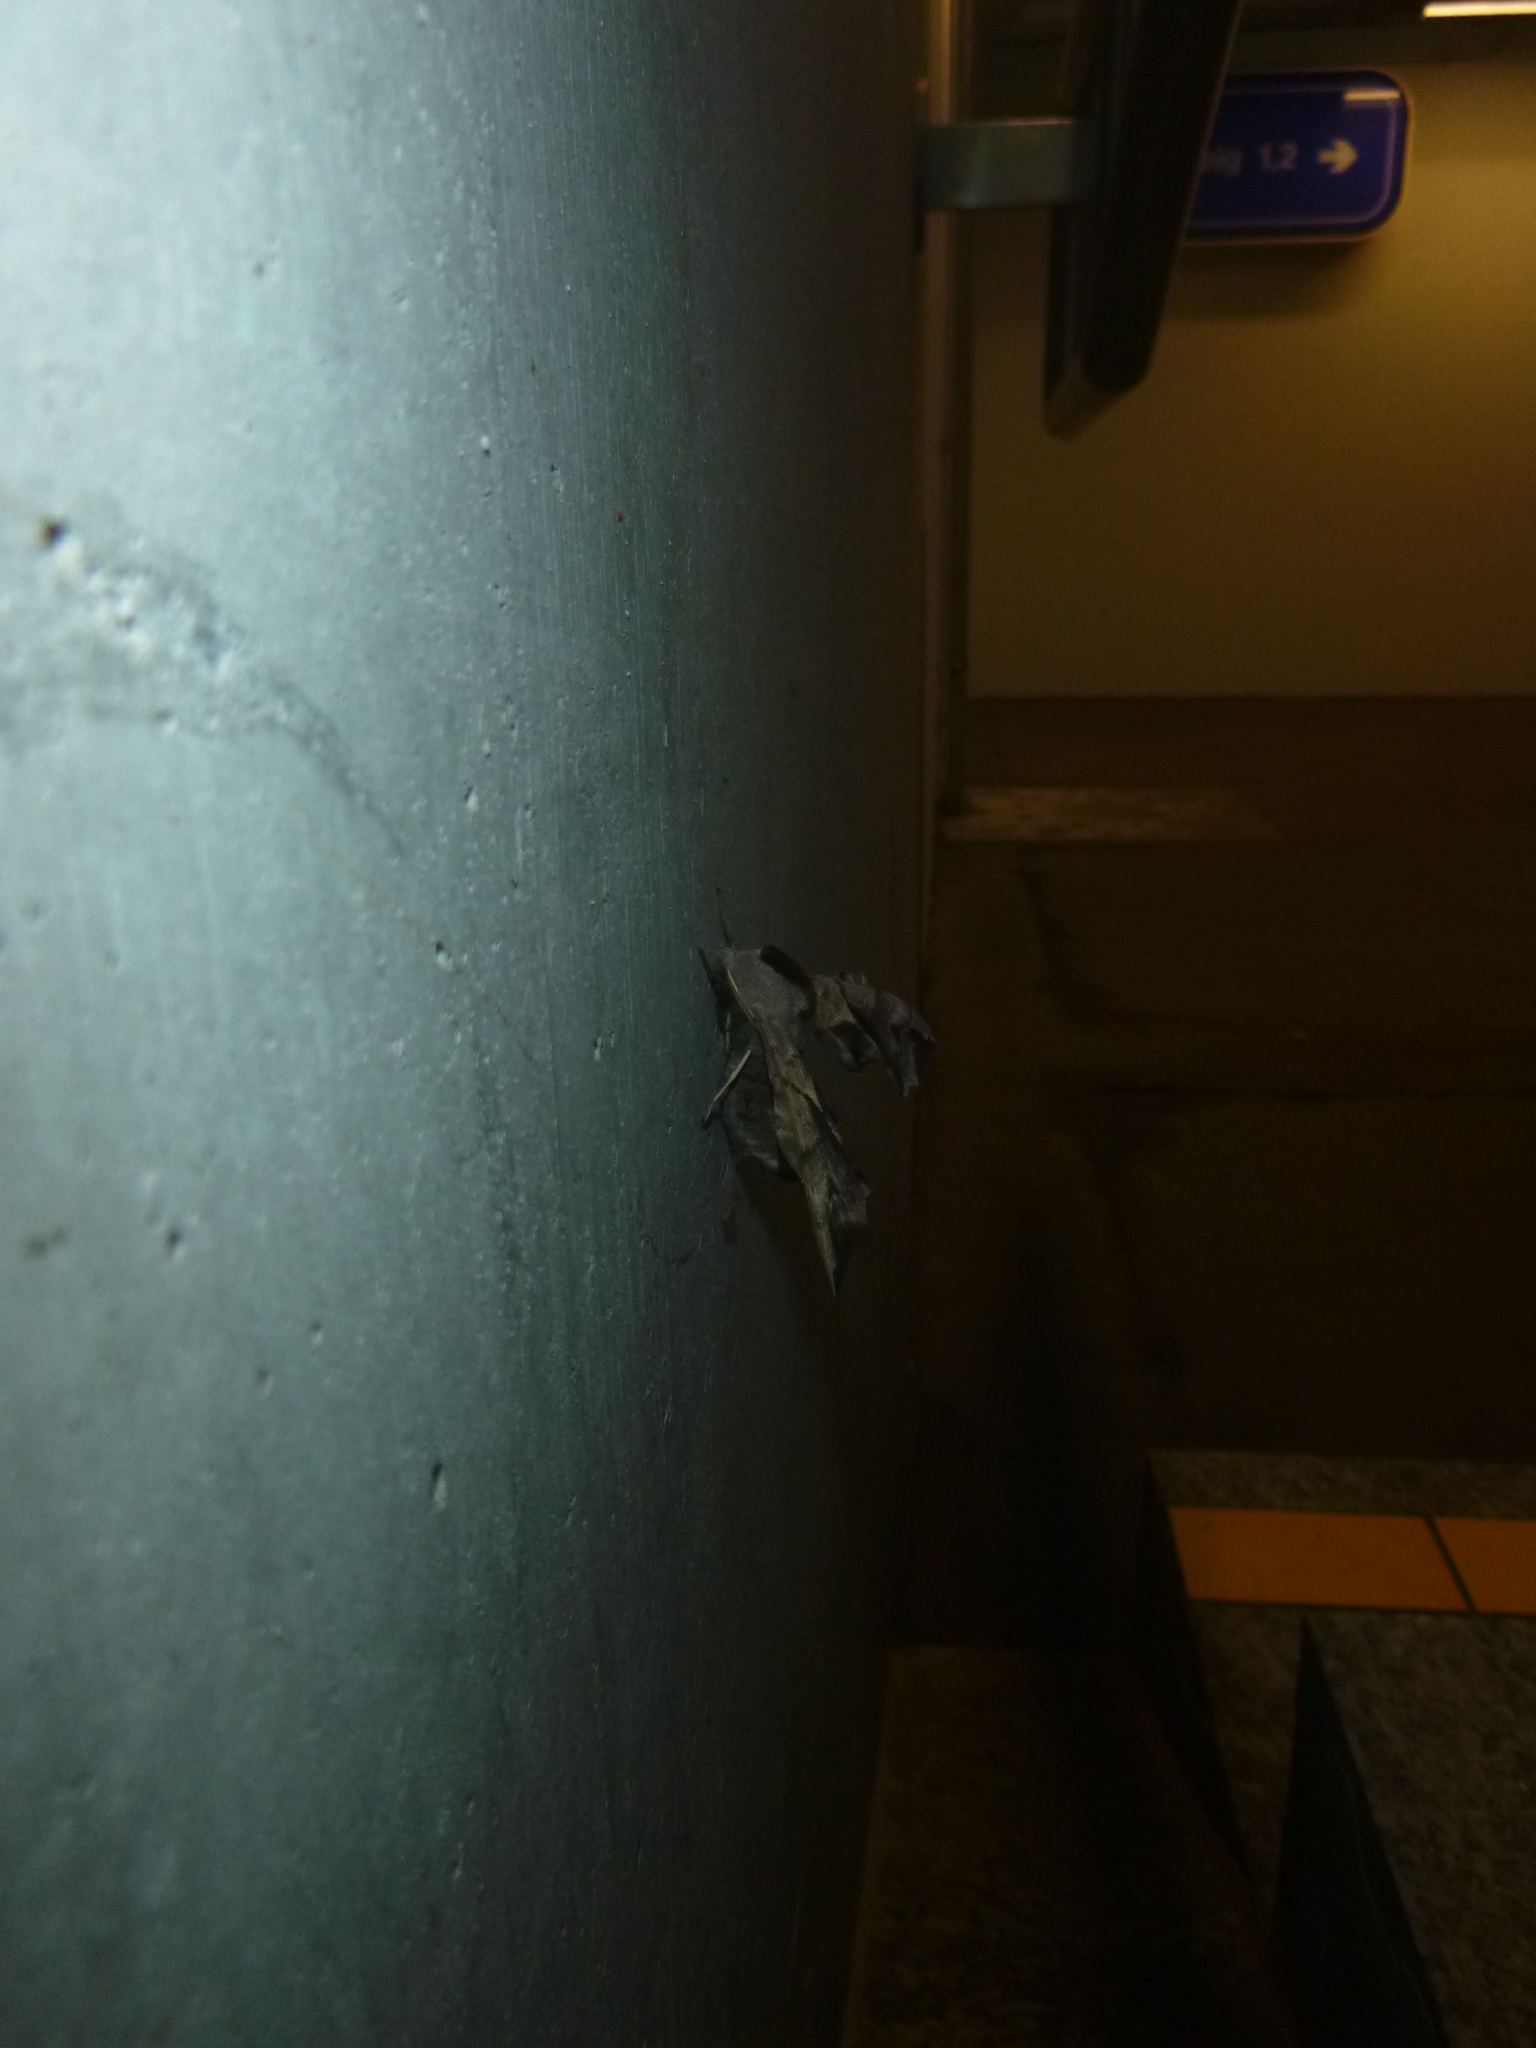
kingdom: Animalia
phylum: Arthropoda
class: Insecta
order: Lepidoptera
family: Sphingidae
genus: Smerinthus
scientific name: Smerinthus ocellata
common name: Eyed hawk-moth
